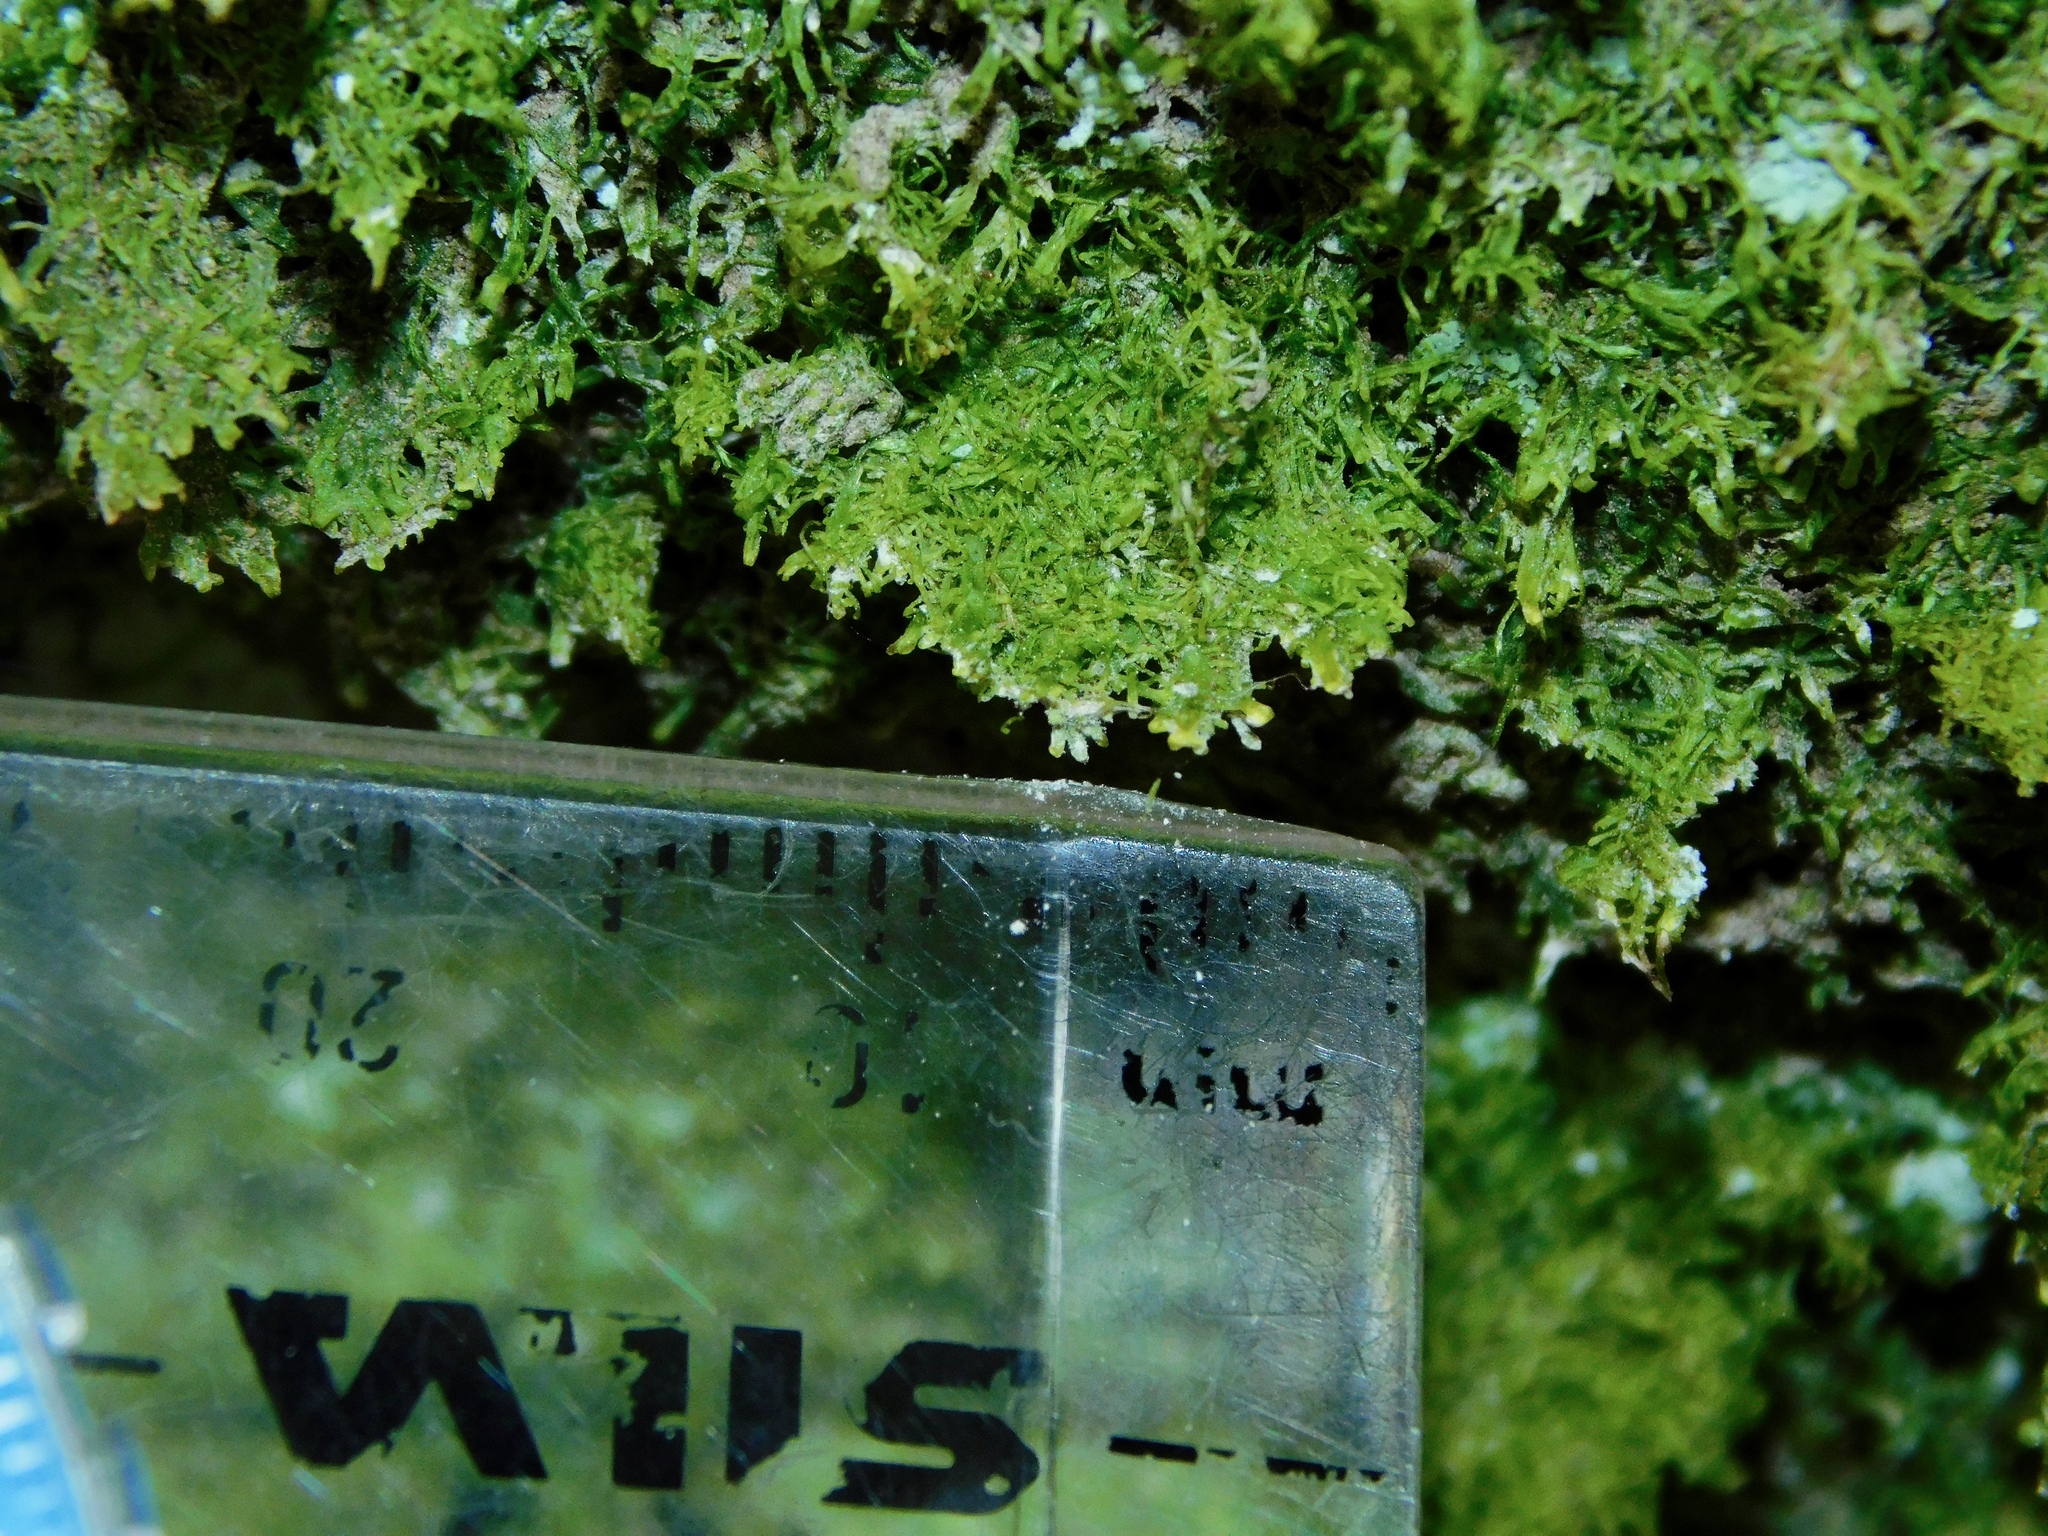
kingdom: Plantae
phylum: Marchantiophyta
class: Jungermanniopsida
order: Metzgeriales
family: Metzgeriaceae
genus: Metzgeria
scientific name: Metzgeria myriopoda
